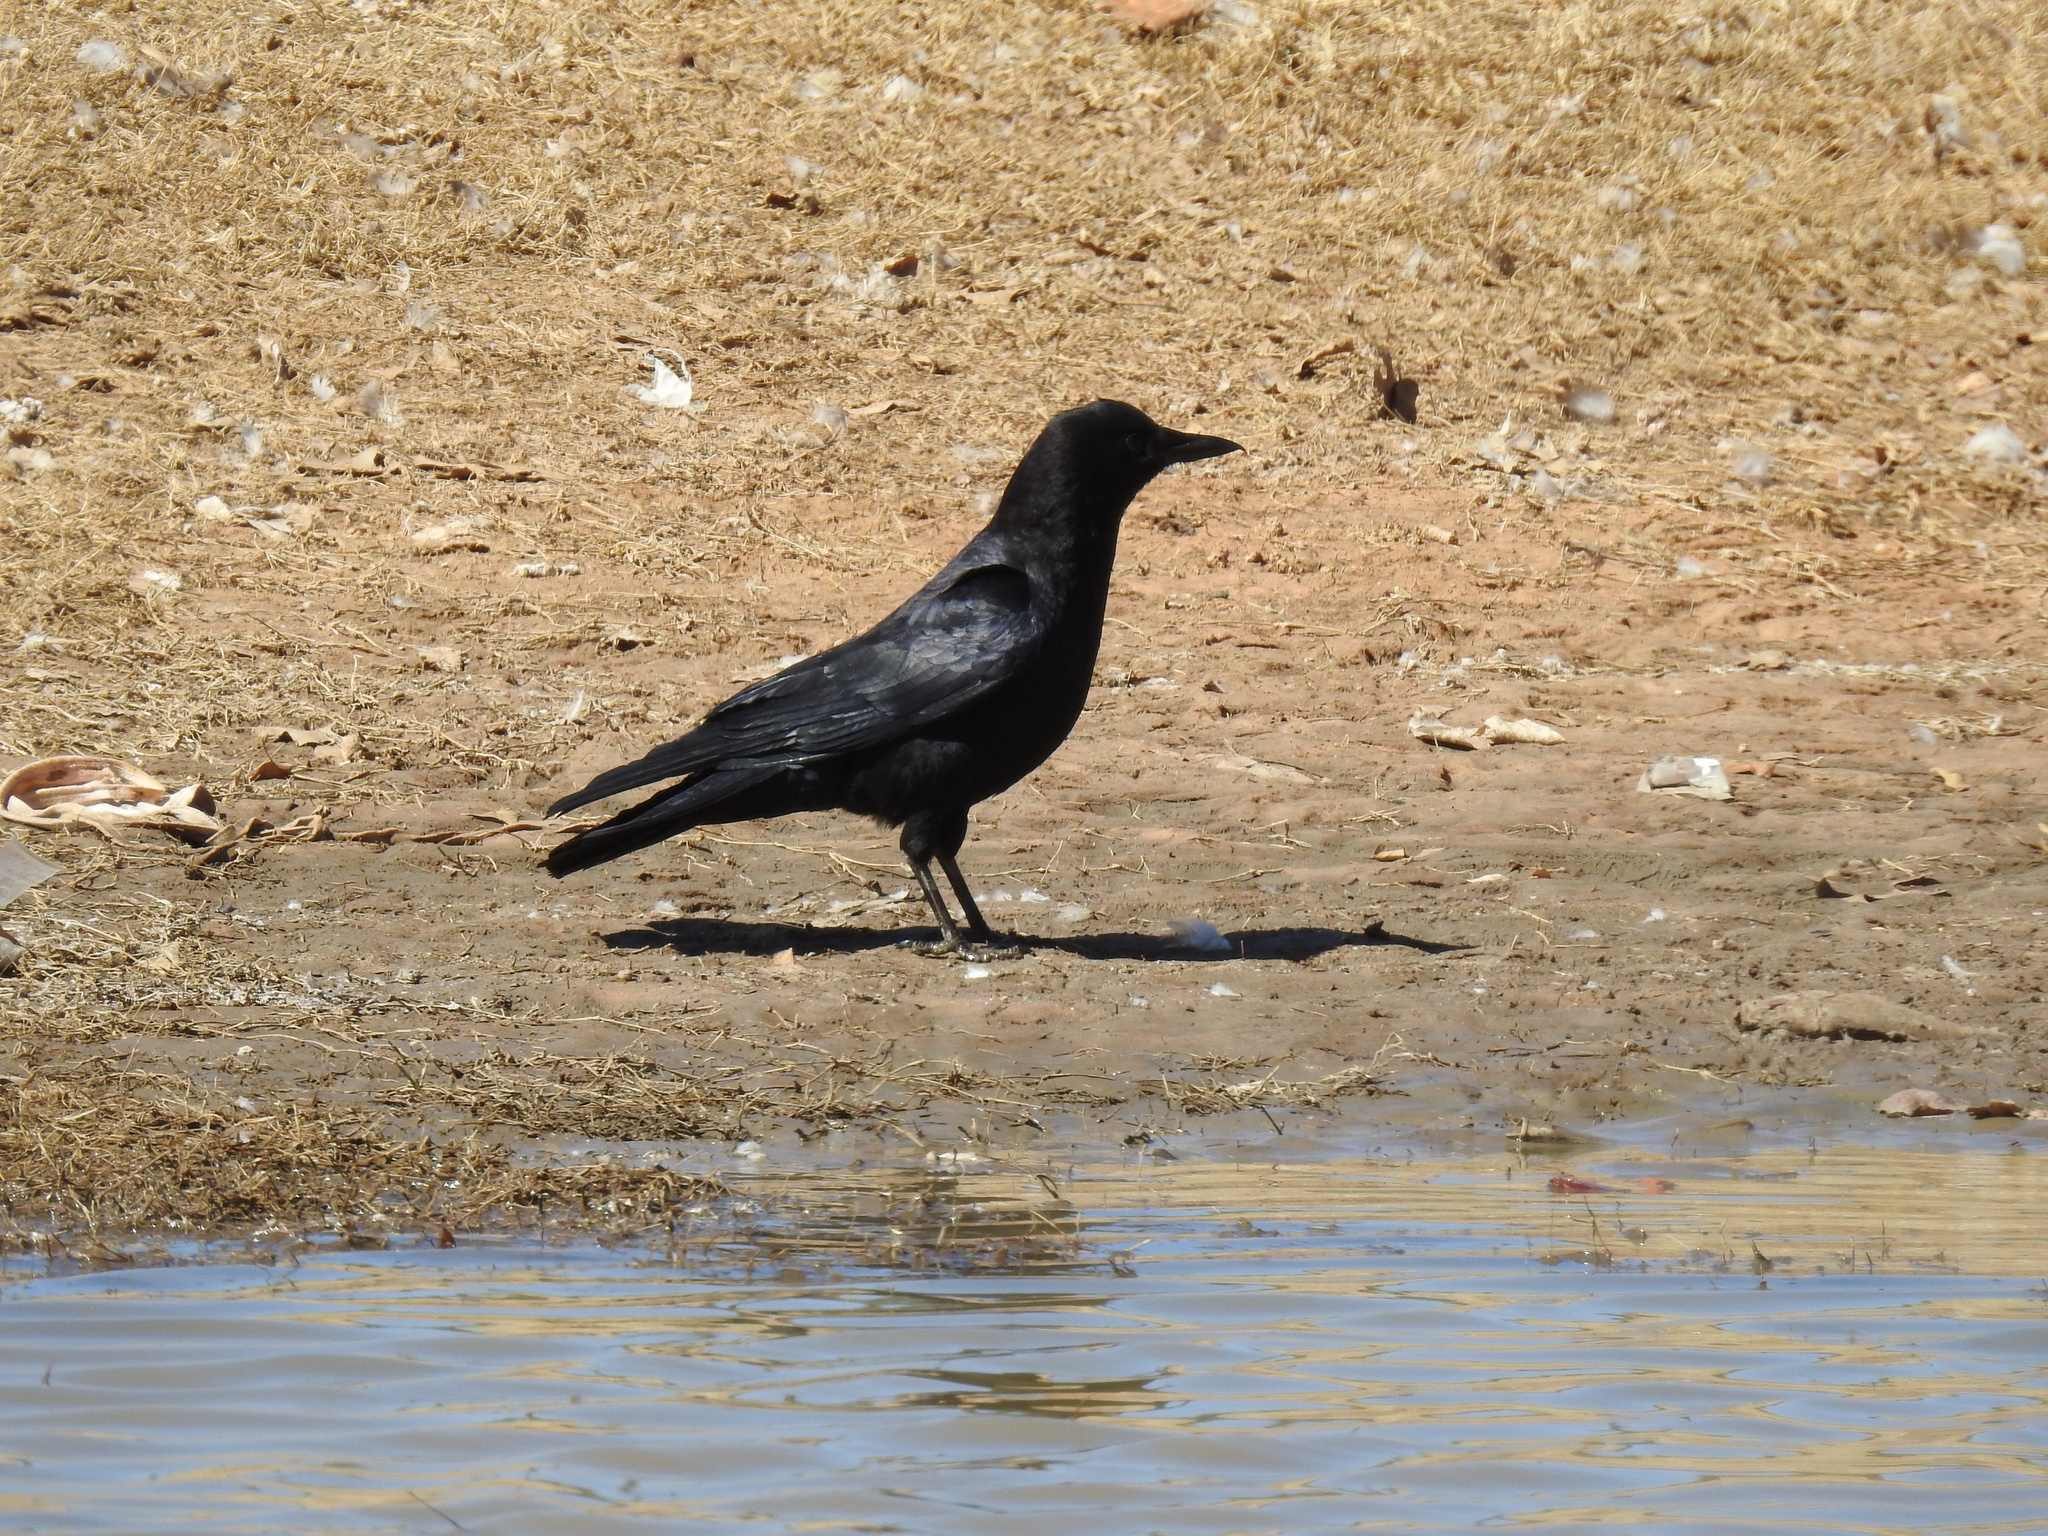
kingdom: Animalia
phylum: Chordata
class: Aves
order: Passeriformes
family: Corvidae
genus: Corvus
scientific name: Corvus brachyrhynchos
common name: American crow
